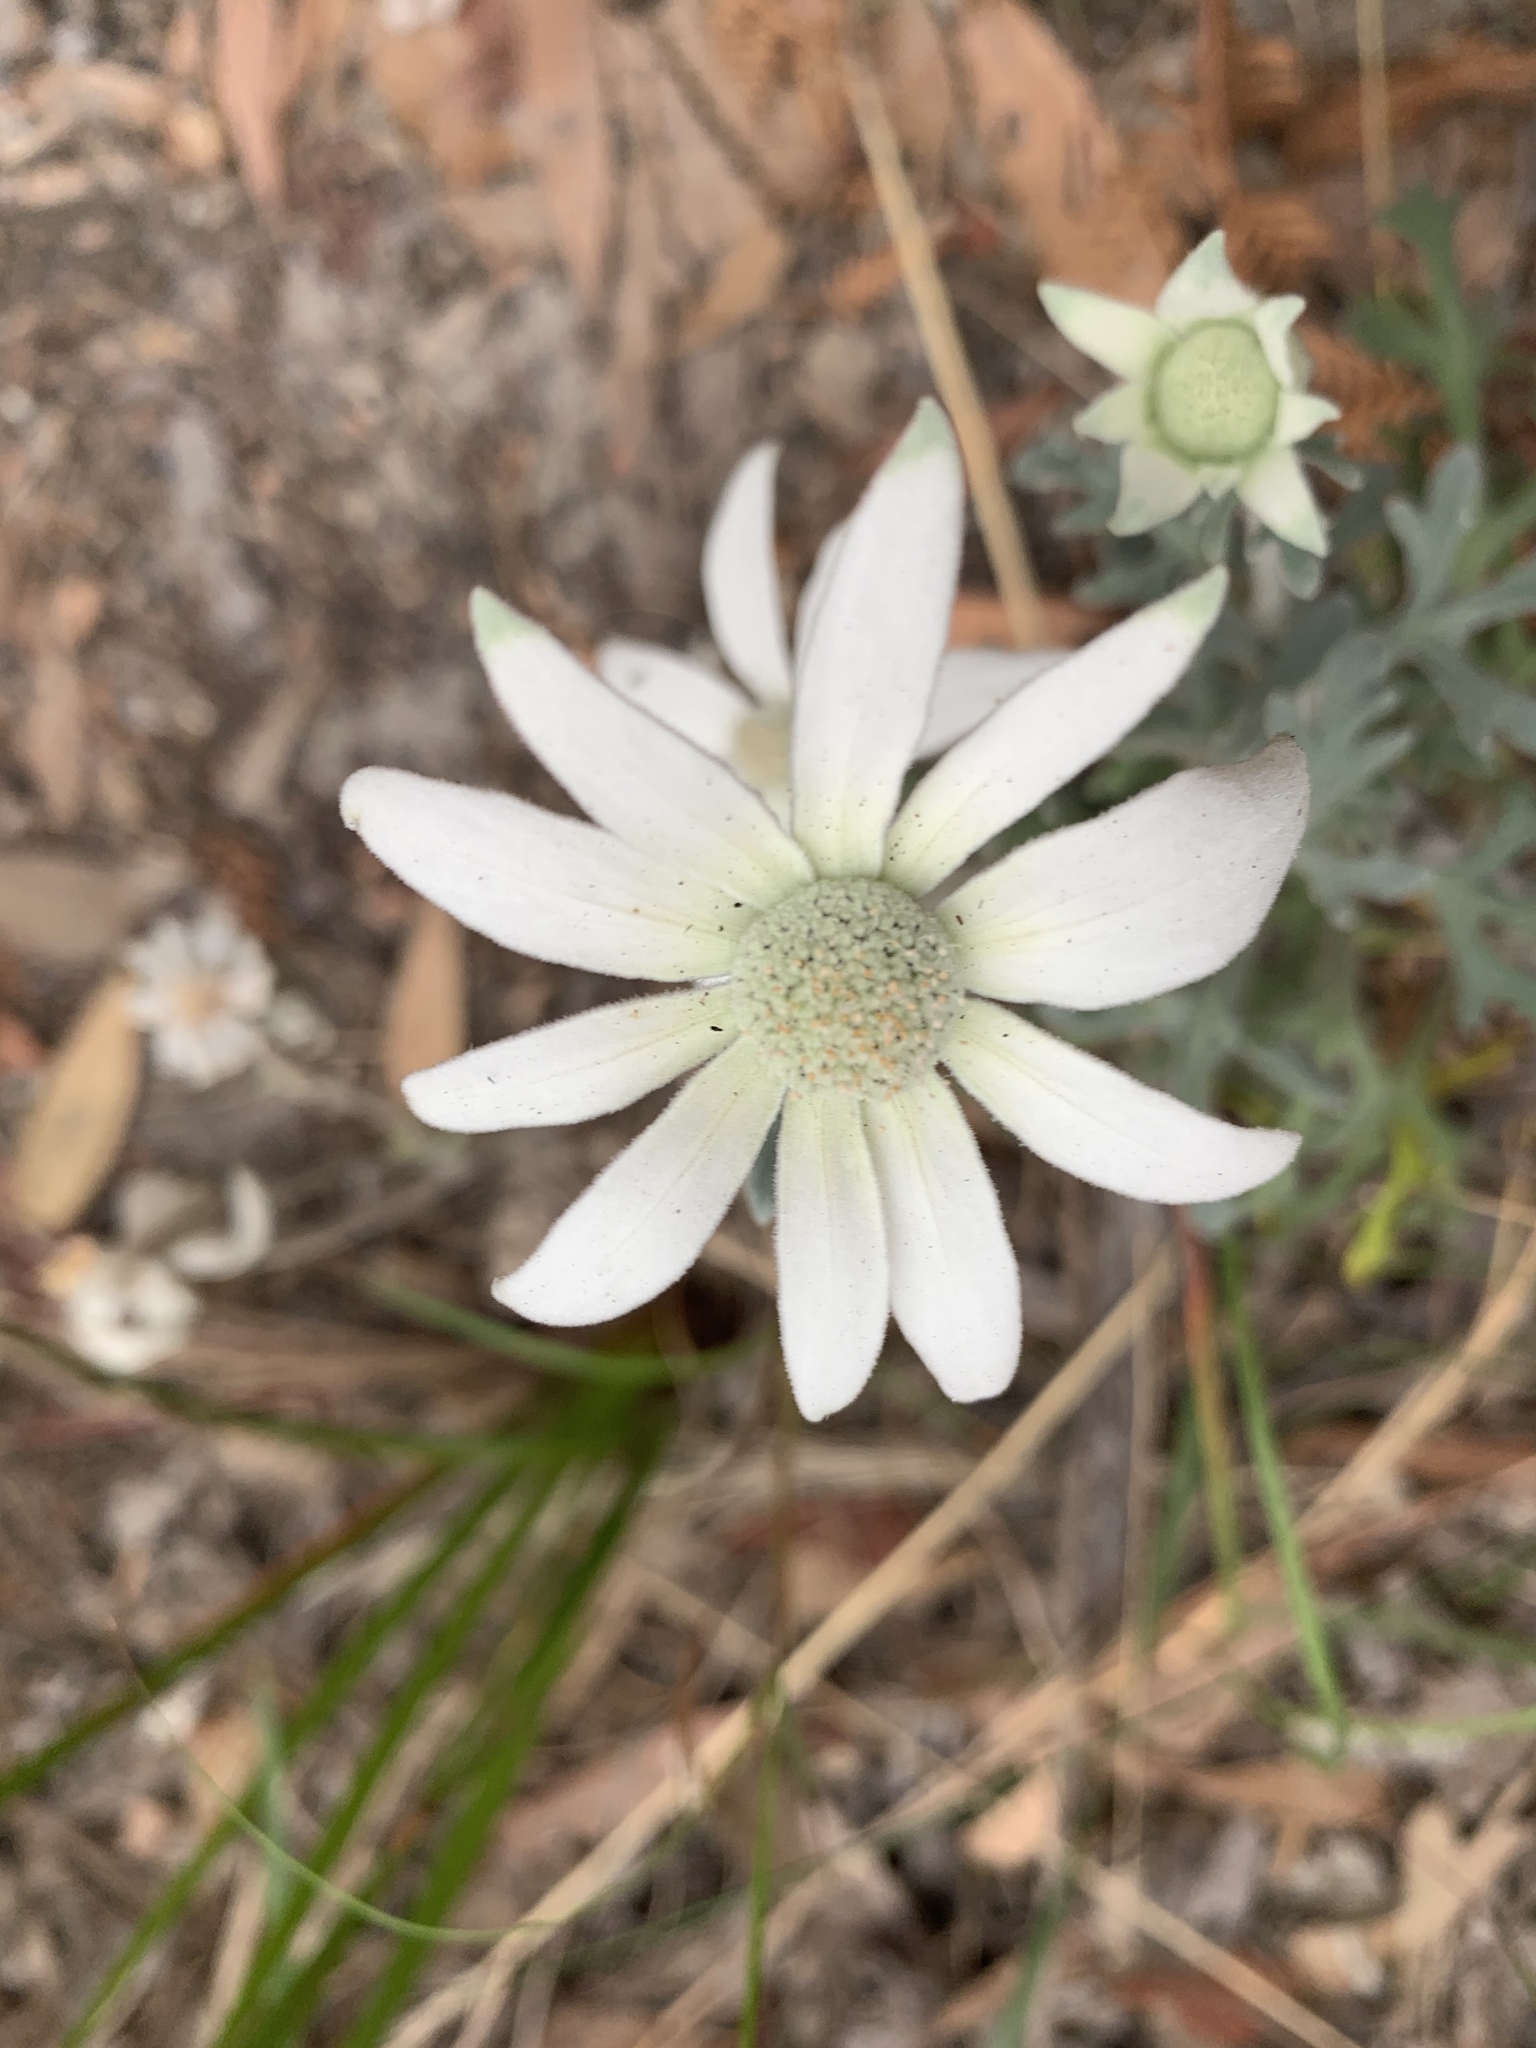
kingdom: Plantae
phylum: Tracheophyta
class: Magnoliopsida
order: Apiales
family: Apiaceae
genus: Actinotus
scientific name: Actinotus helianthi
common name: Flannel-flower
